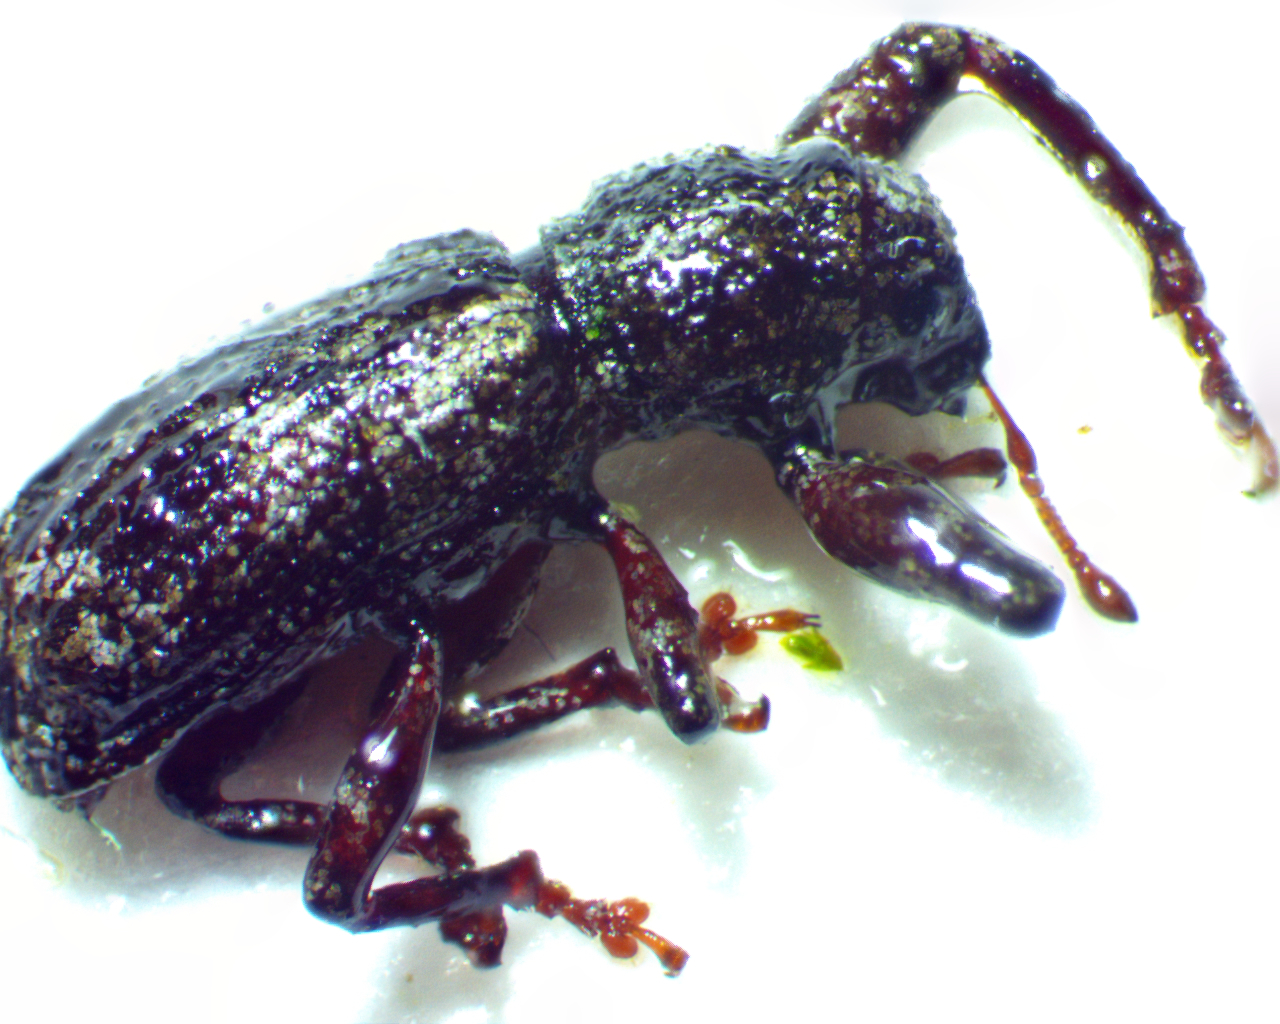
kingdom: Animalia
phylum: Arthropoda
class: Insecta
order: Coleoptera
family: Curculionidae
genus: Pandeleteius
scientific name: Pandeleteius hilaris
